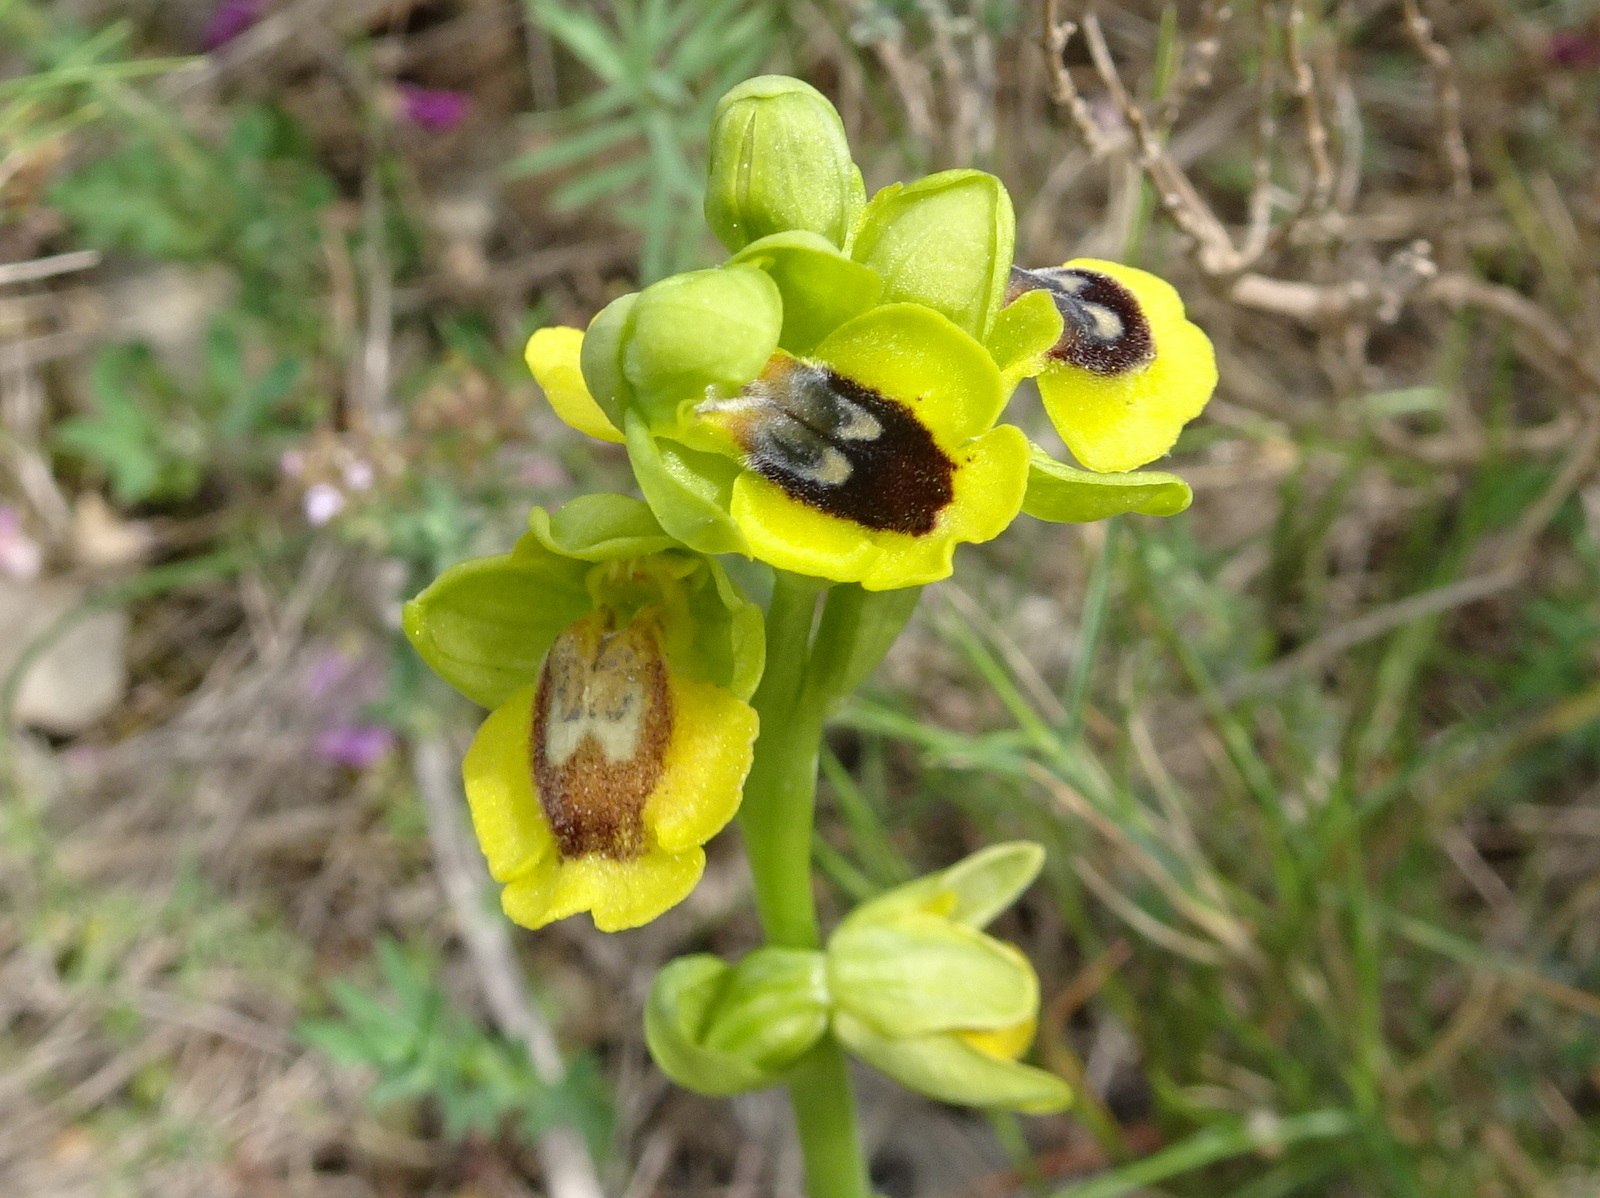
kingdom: Plantae
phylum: Tracheophyta
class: Liliopsida
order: Asparagales
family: Orchidaceae
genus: Ophrys
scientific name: Ophrys lutea
